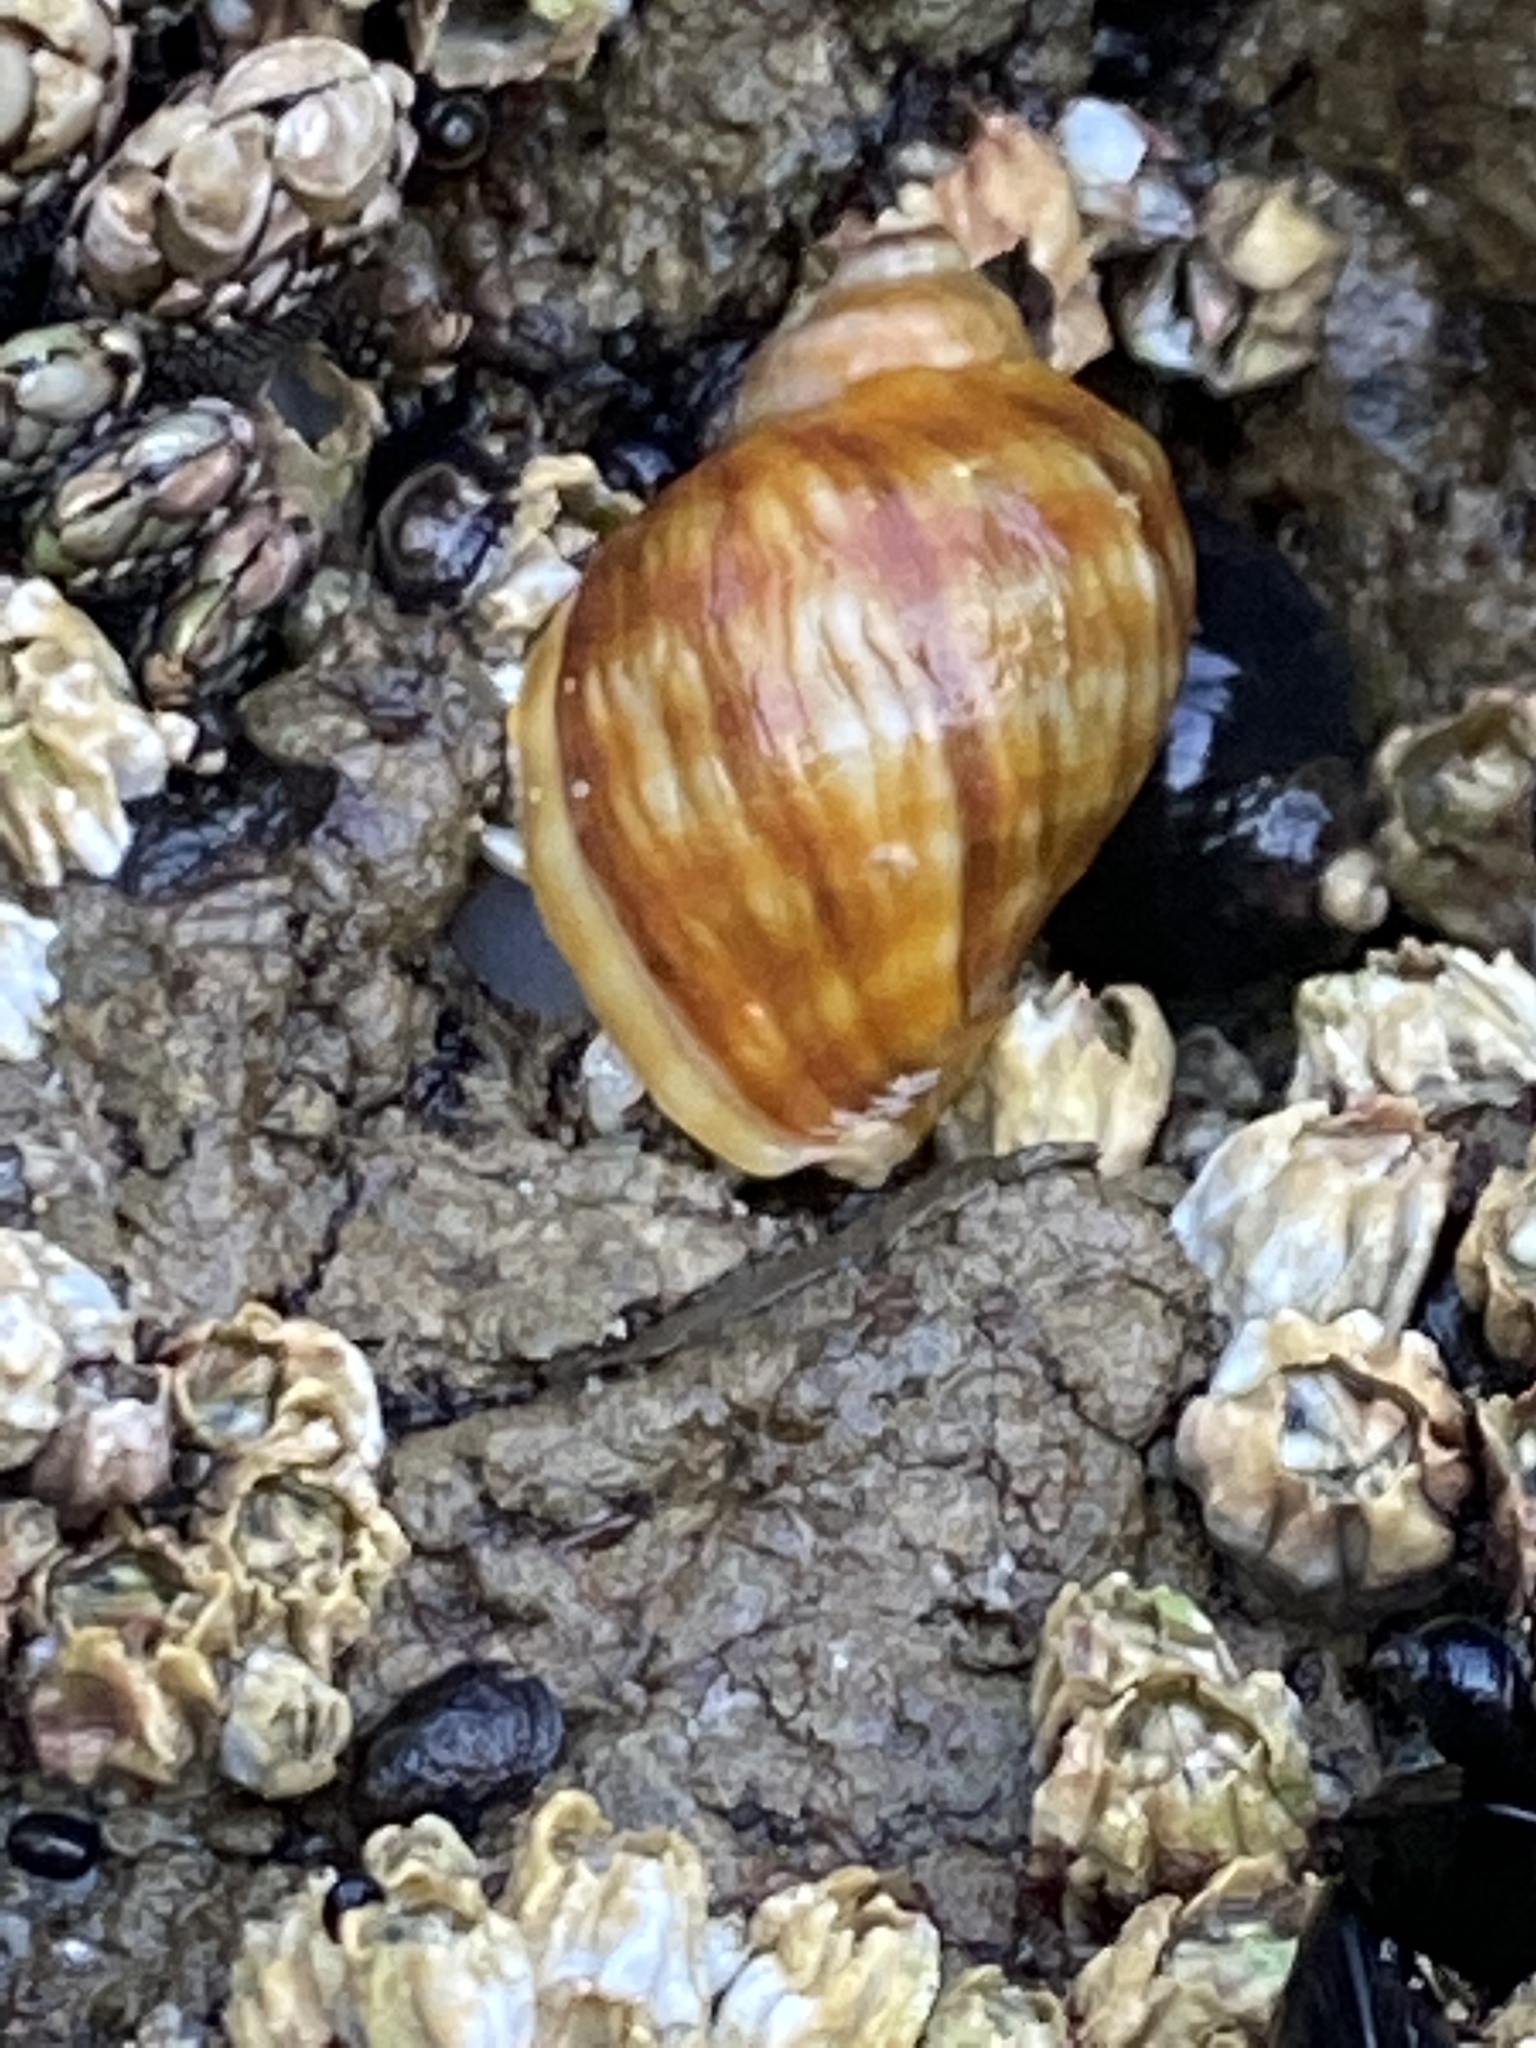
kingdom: Animalia
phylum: Mollusca
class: Gastropoda
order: Neogastropoda
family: Muricidae
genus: Nucella
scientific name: Nucella lamellosa
